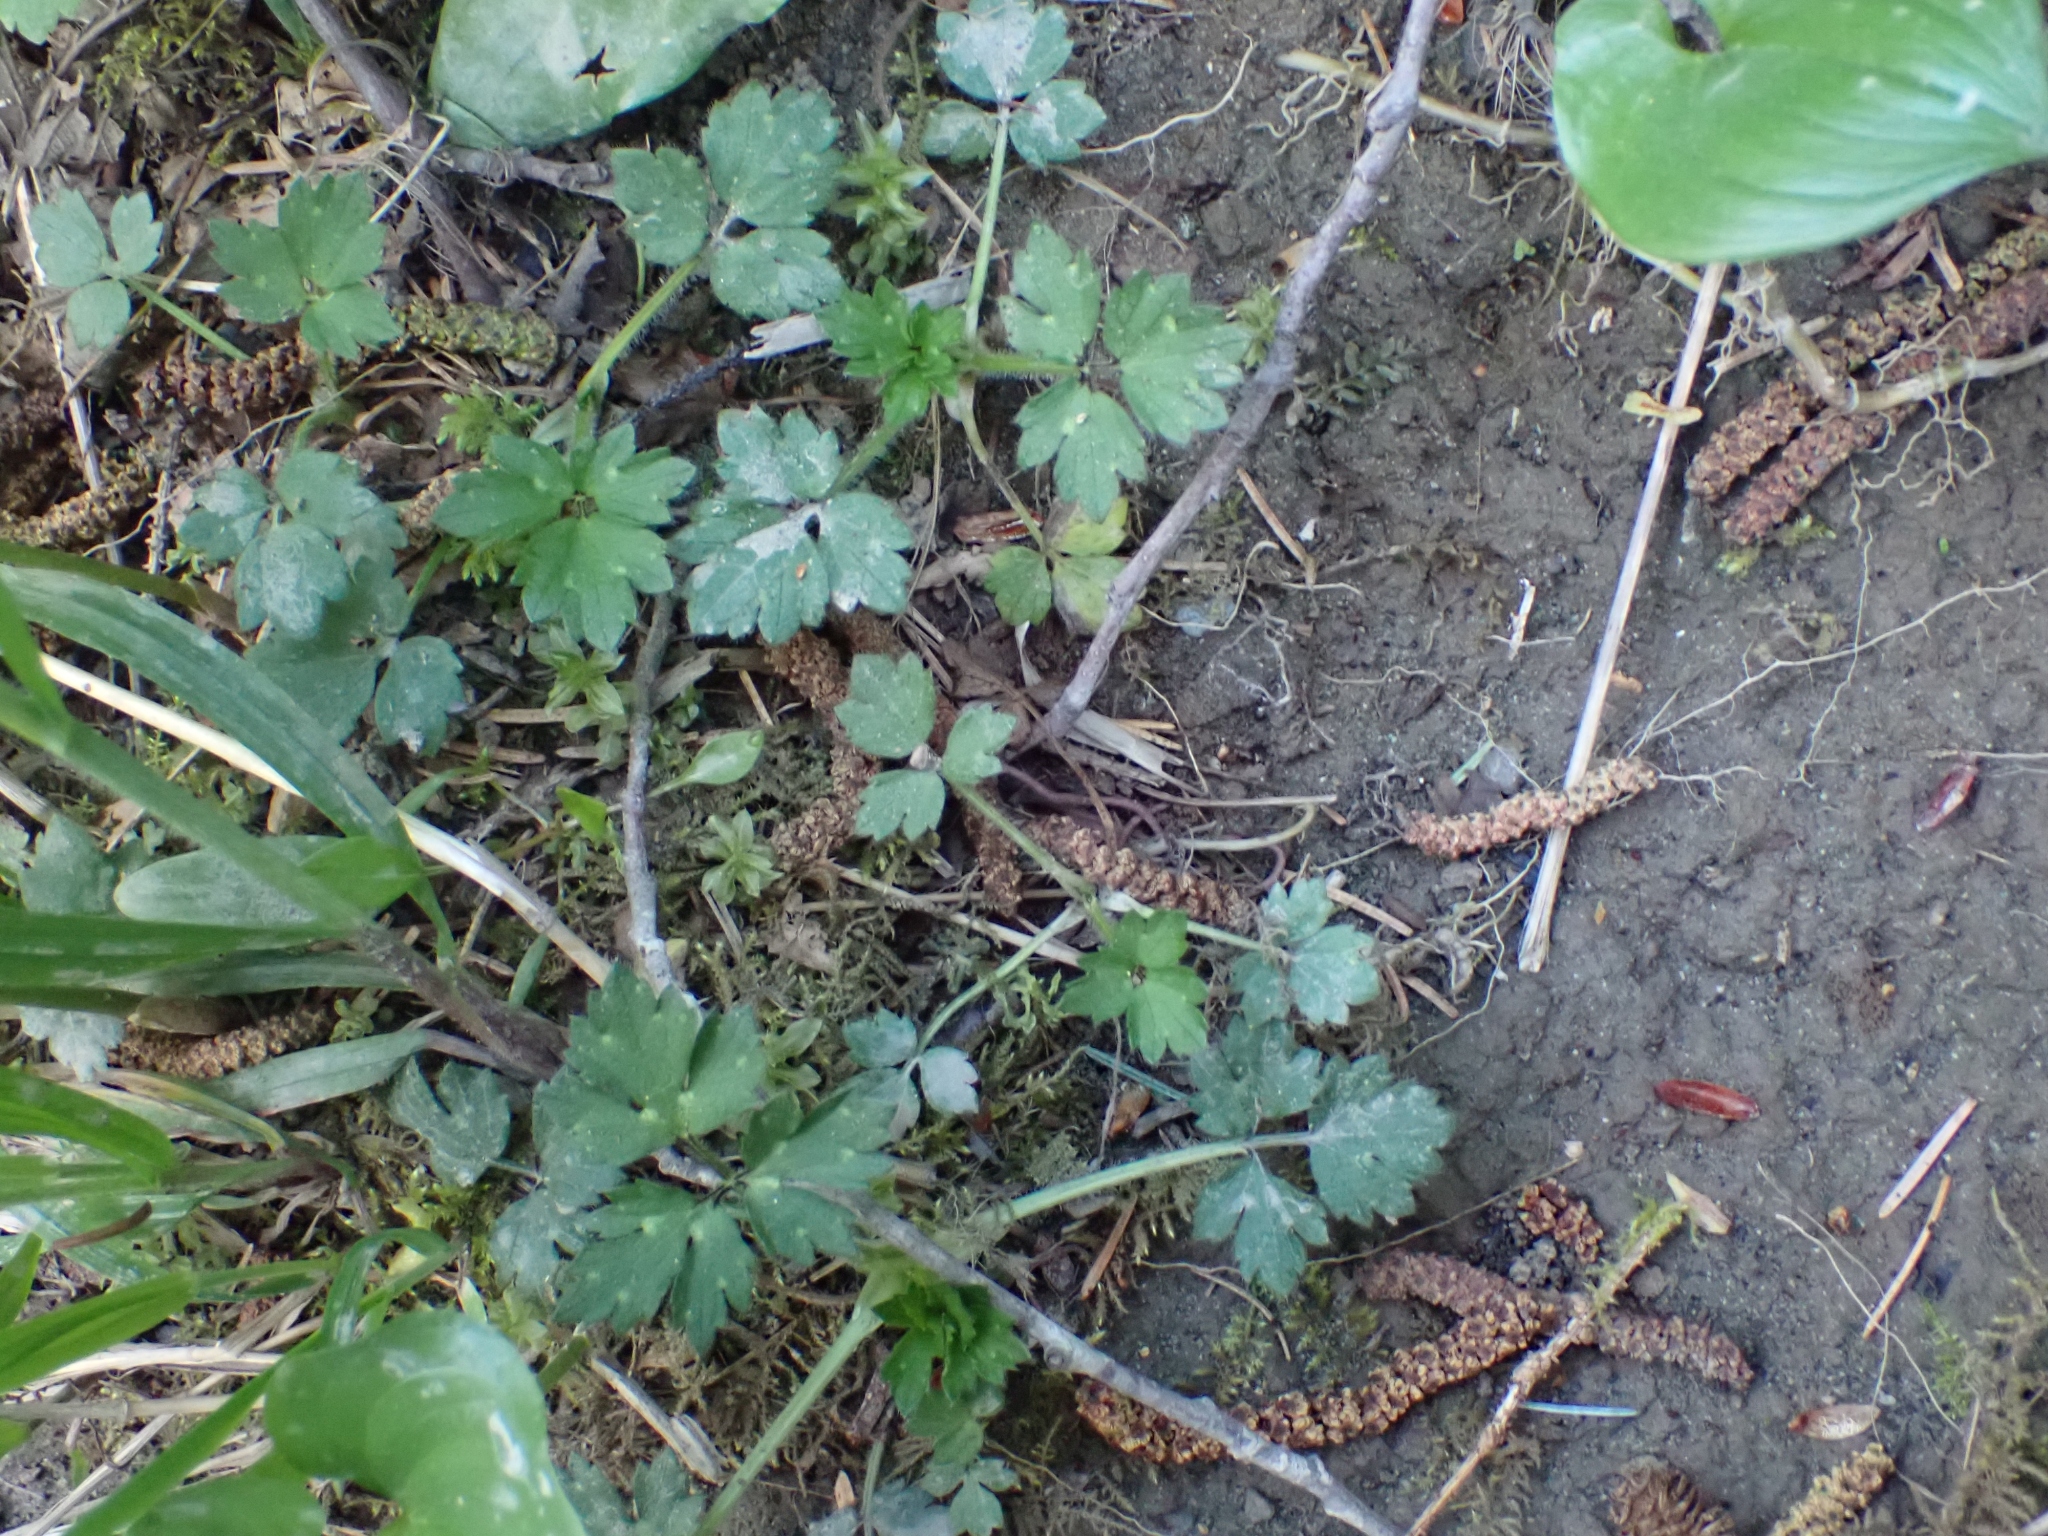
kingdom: Plantae
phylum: Tracheophyta
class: Magnoliopsida
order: Ranunculales
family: Ranunculaceae
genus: Ranunculus
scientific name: Ranunculus repens
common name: Creeping buttercup
